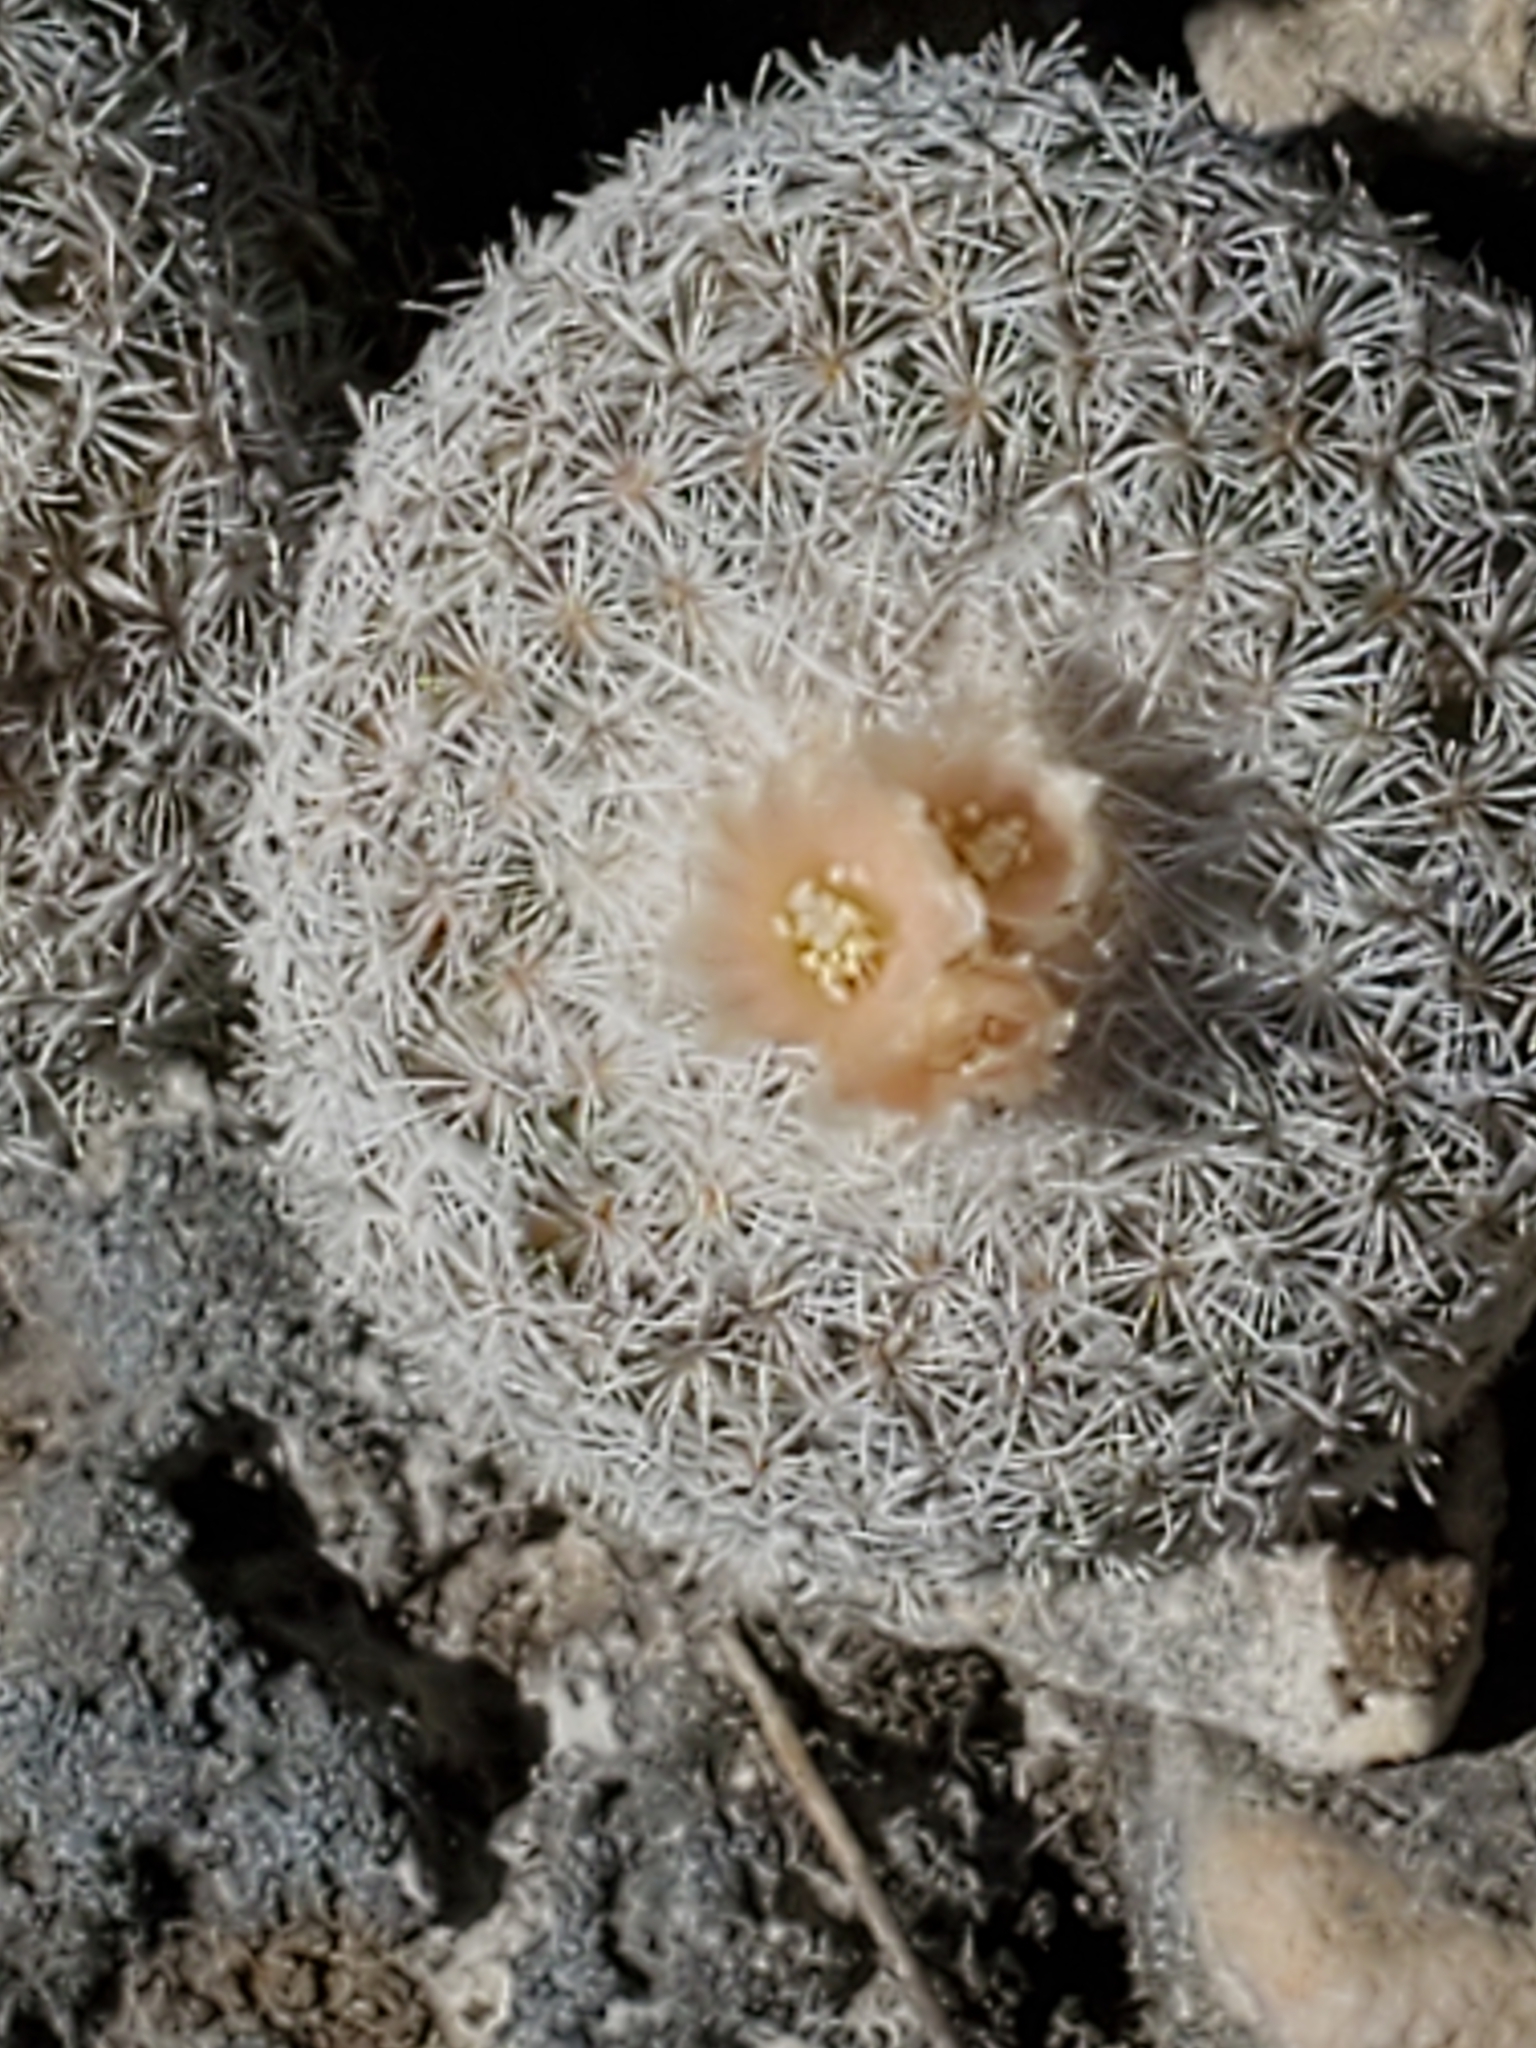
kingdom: Plantae
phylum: Tracheophyta
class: Magnoliopsida
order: Caryophyllales
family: Cactaceae
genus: Epithelantha
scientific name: Epithelantha micromeris
